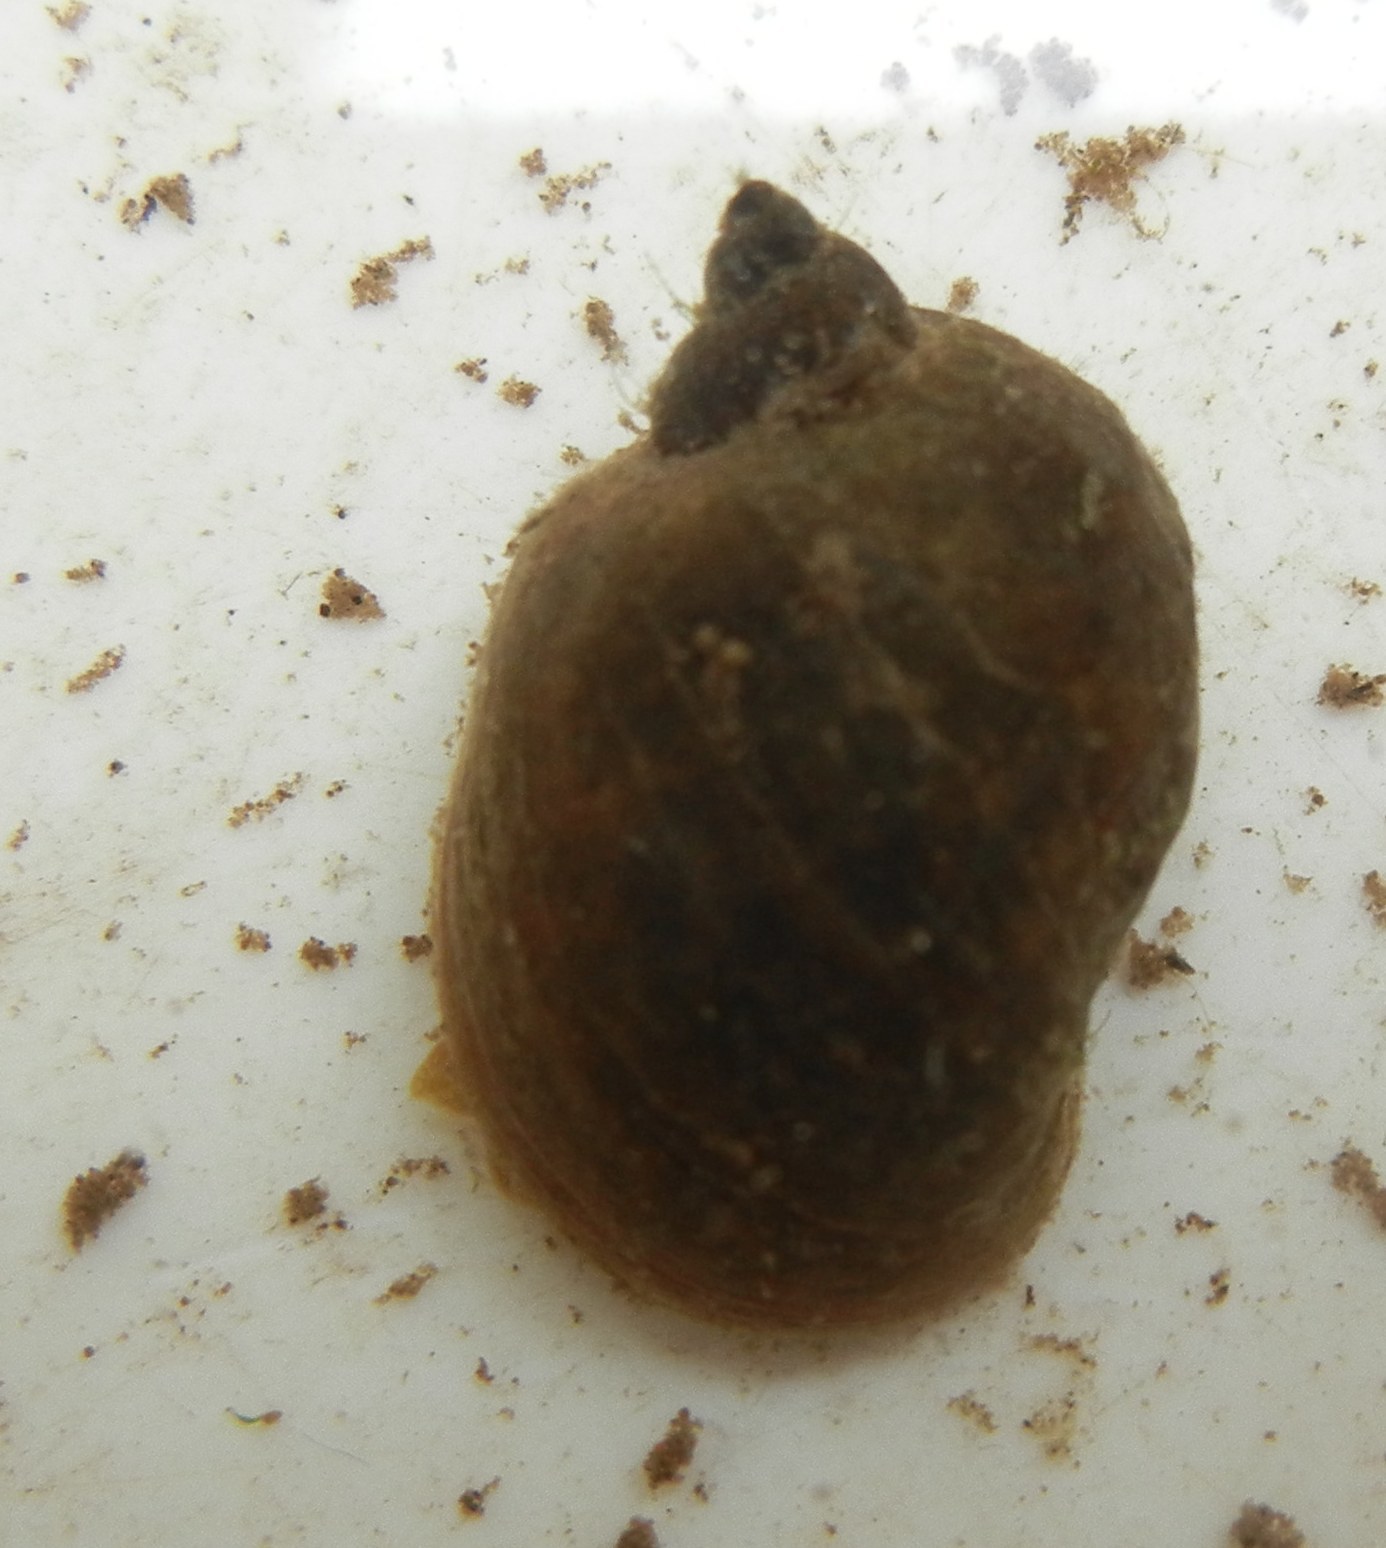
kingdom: Animalia
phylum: Mollusca
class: Gastropoda
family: Lymnaeidae
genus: Ampullaceana
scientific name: Ampullaceana balthica
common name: Wandering pond snail
